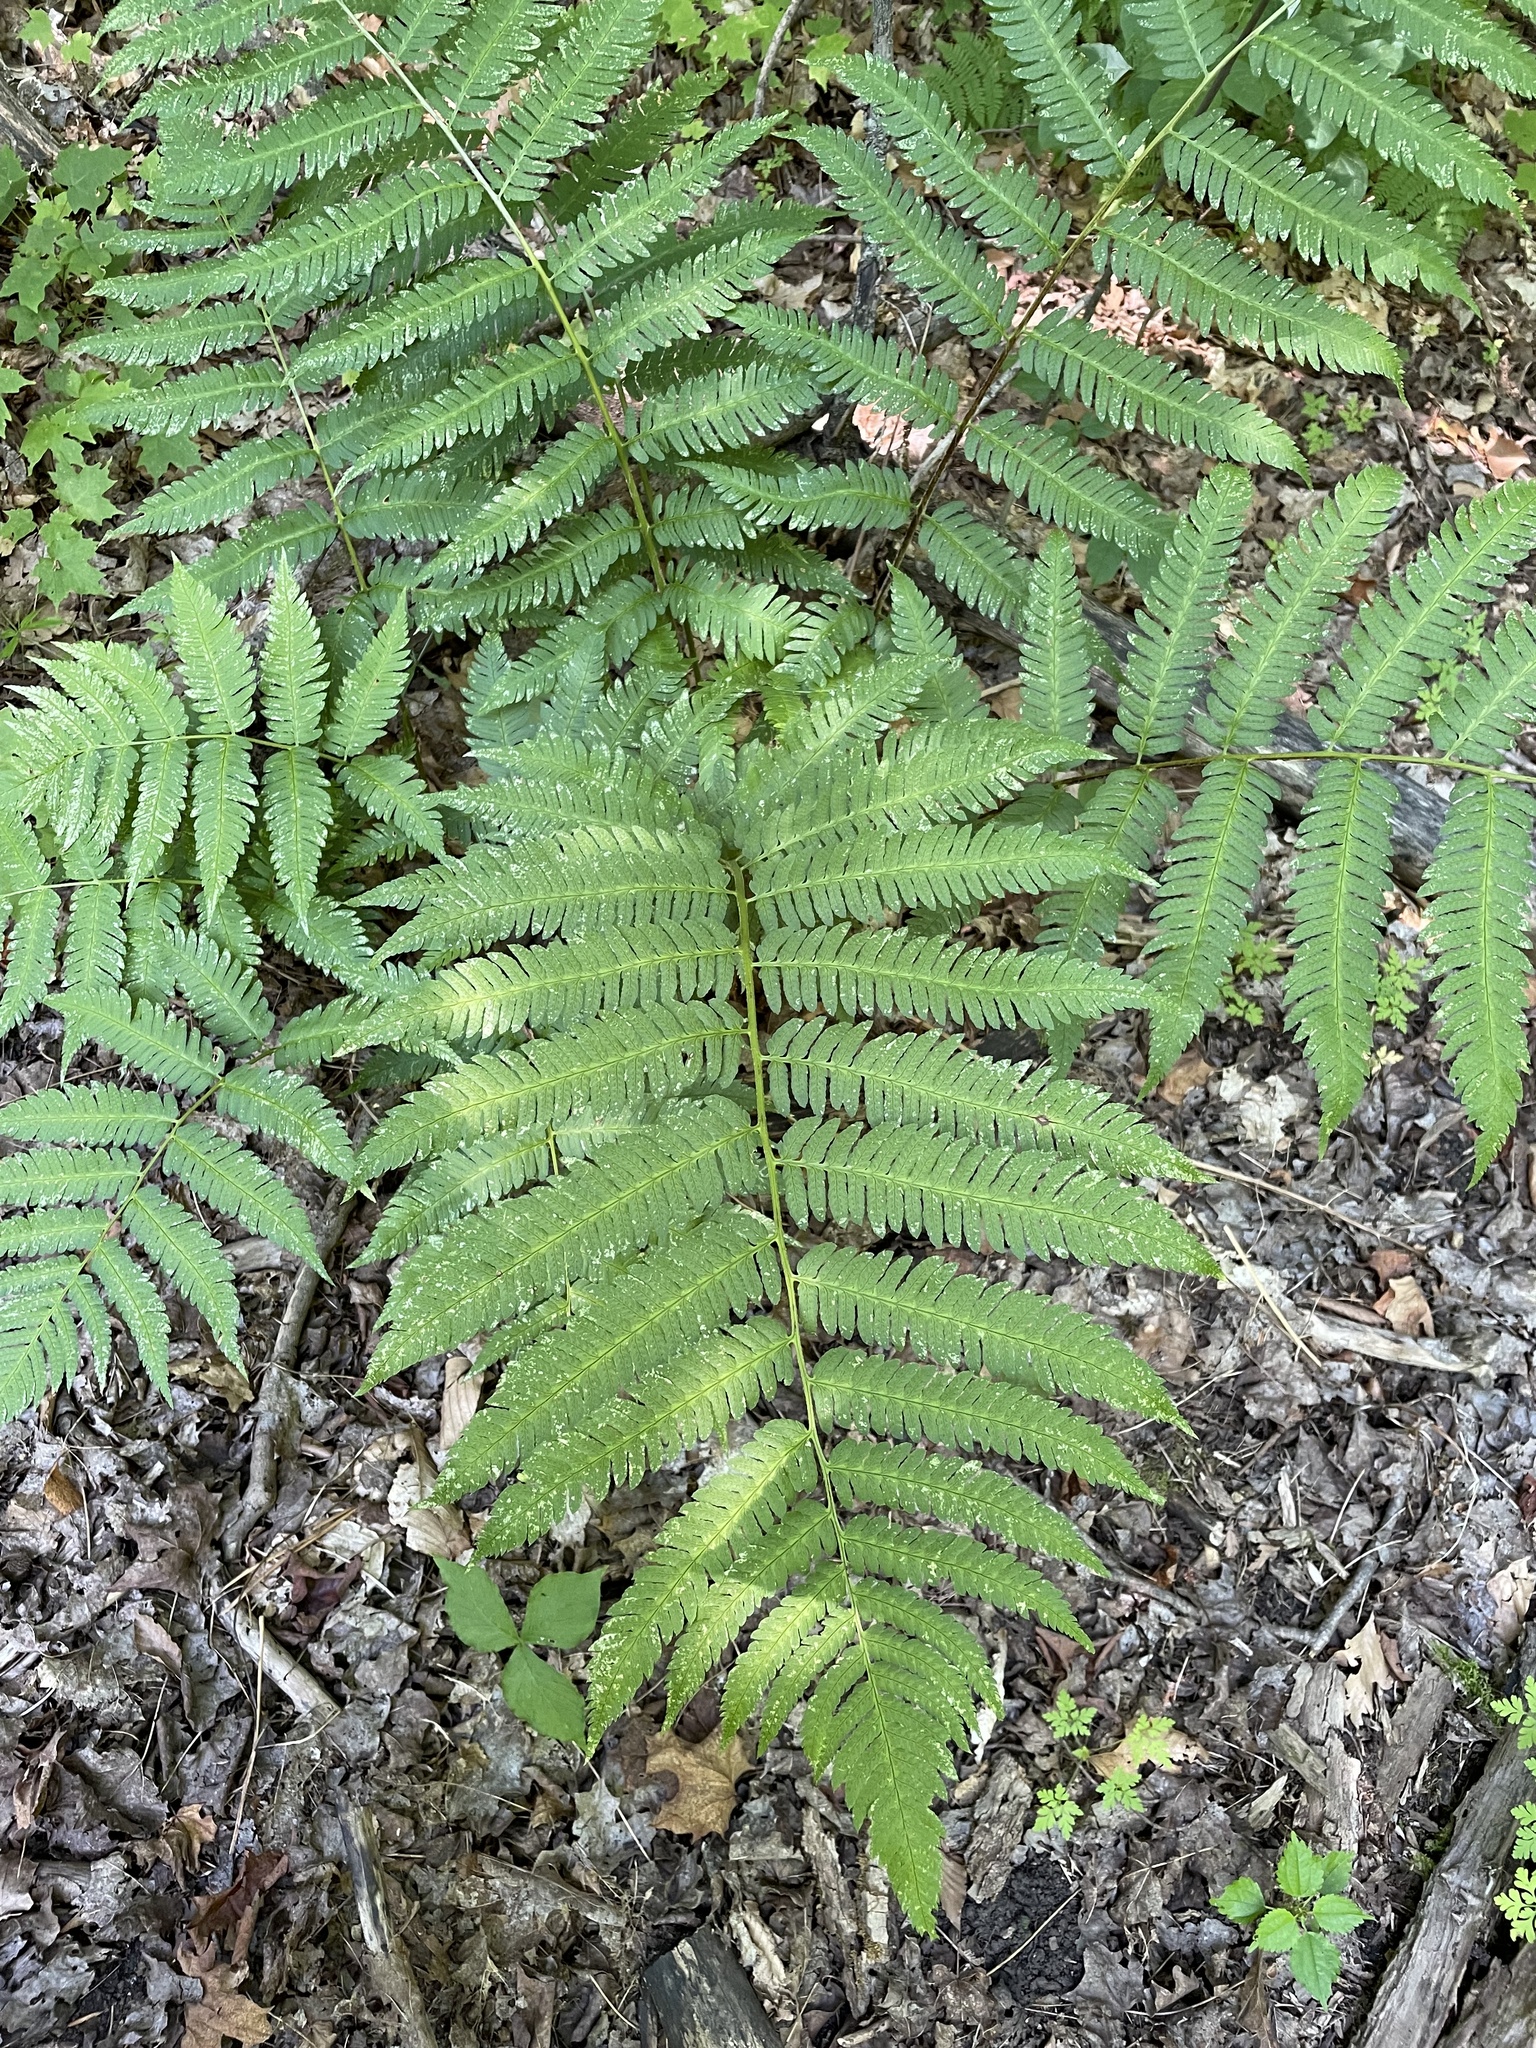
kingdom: Plantae
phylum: Tracheophyta
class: Polypodiopsida
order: Polypodiales
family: Dryopteridaceae
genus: Dryopteris
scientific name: Dryopteris goldieana
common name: Goldie's fern
